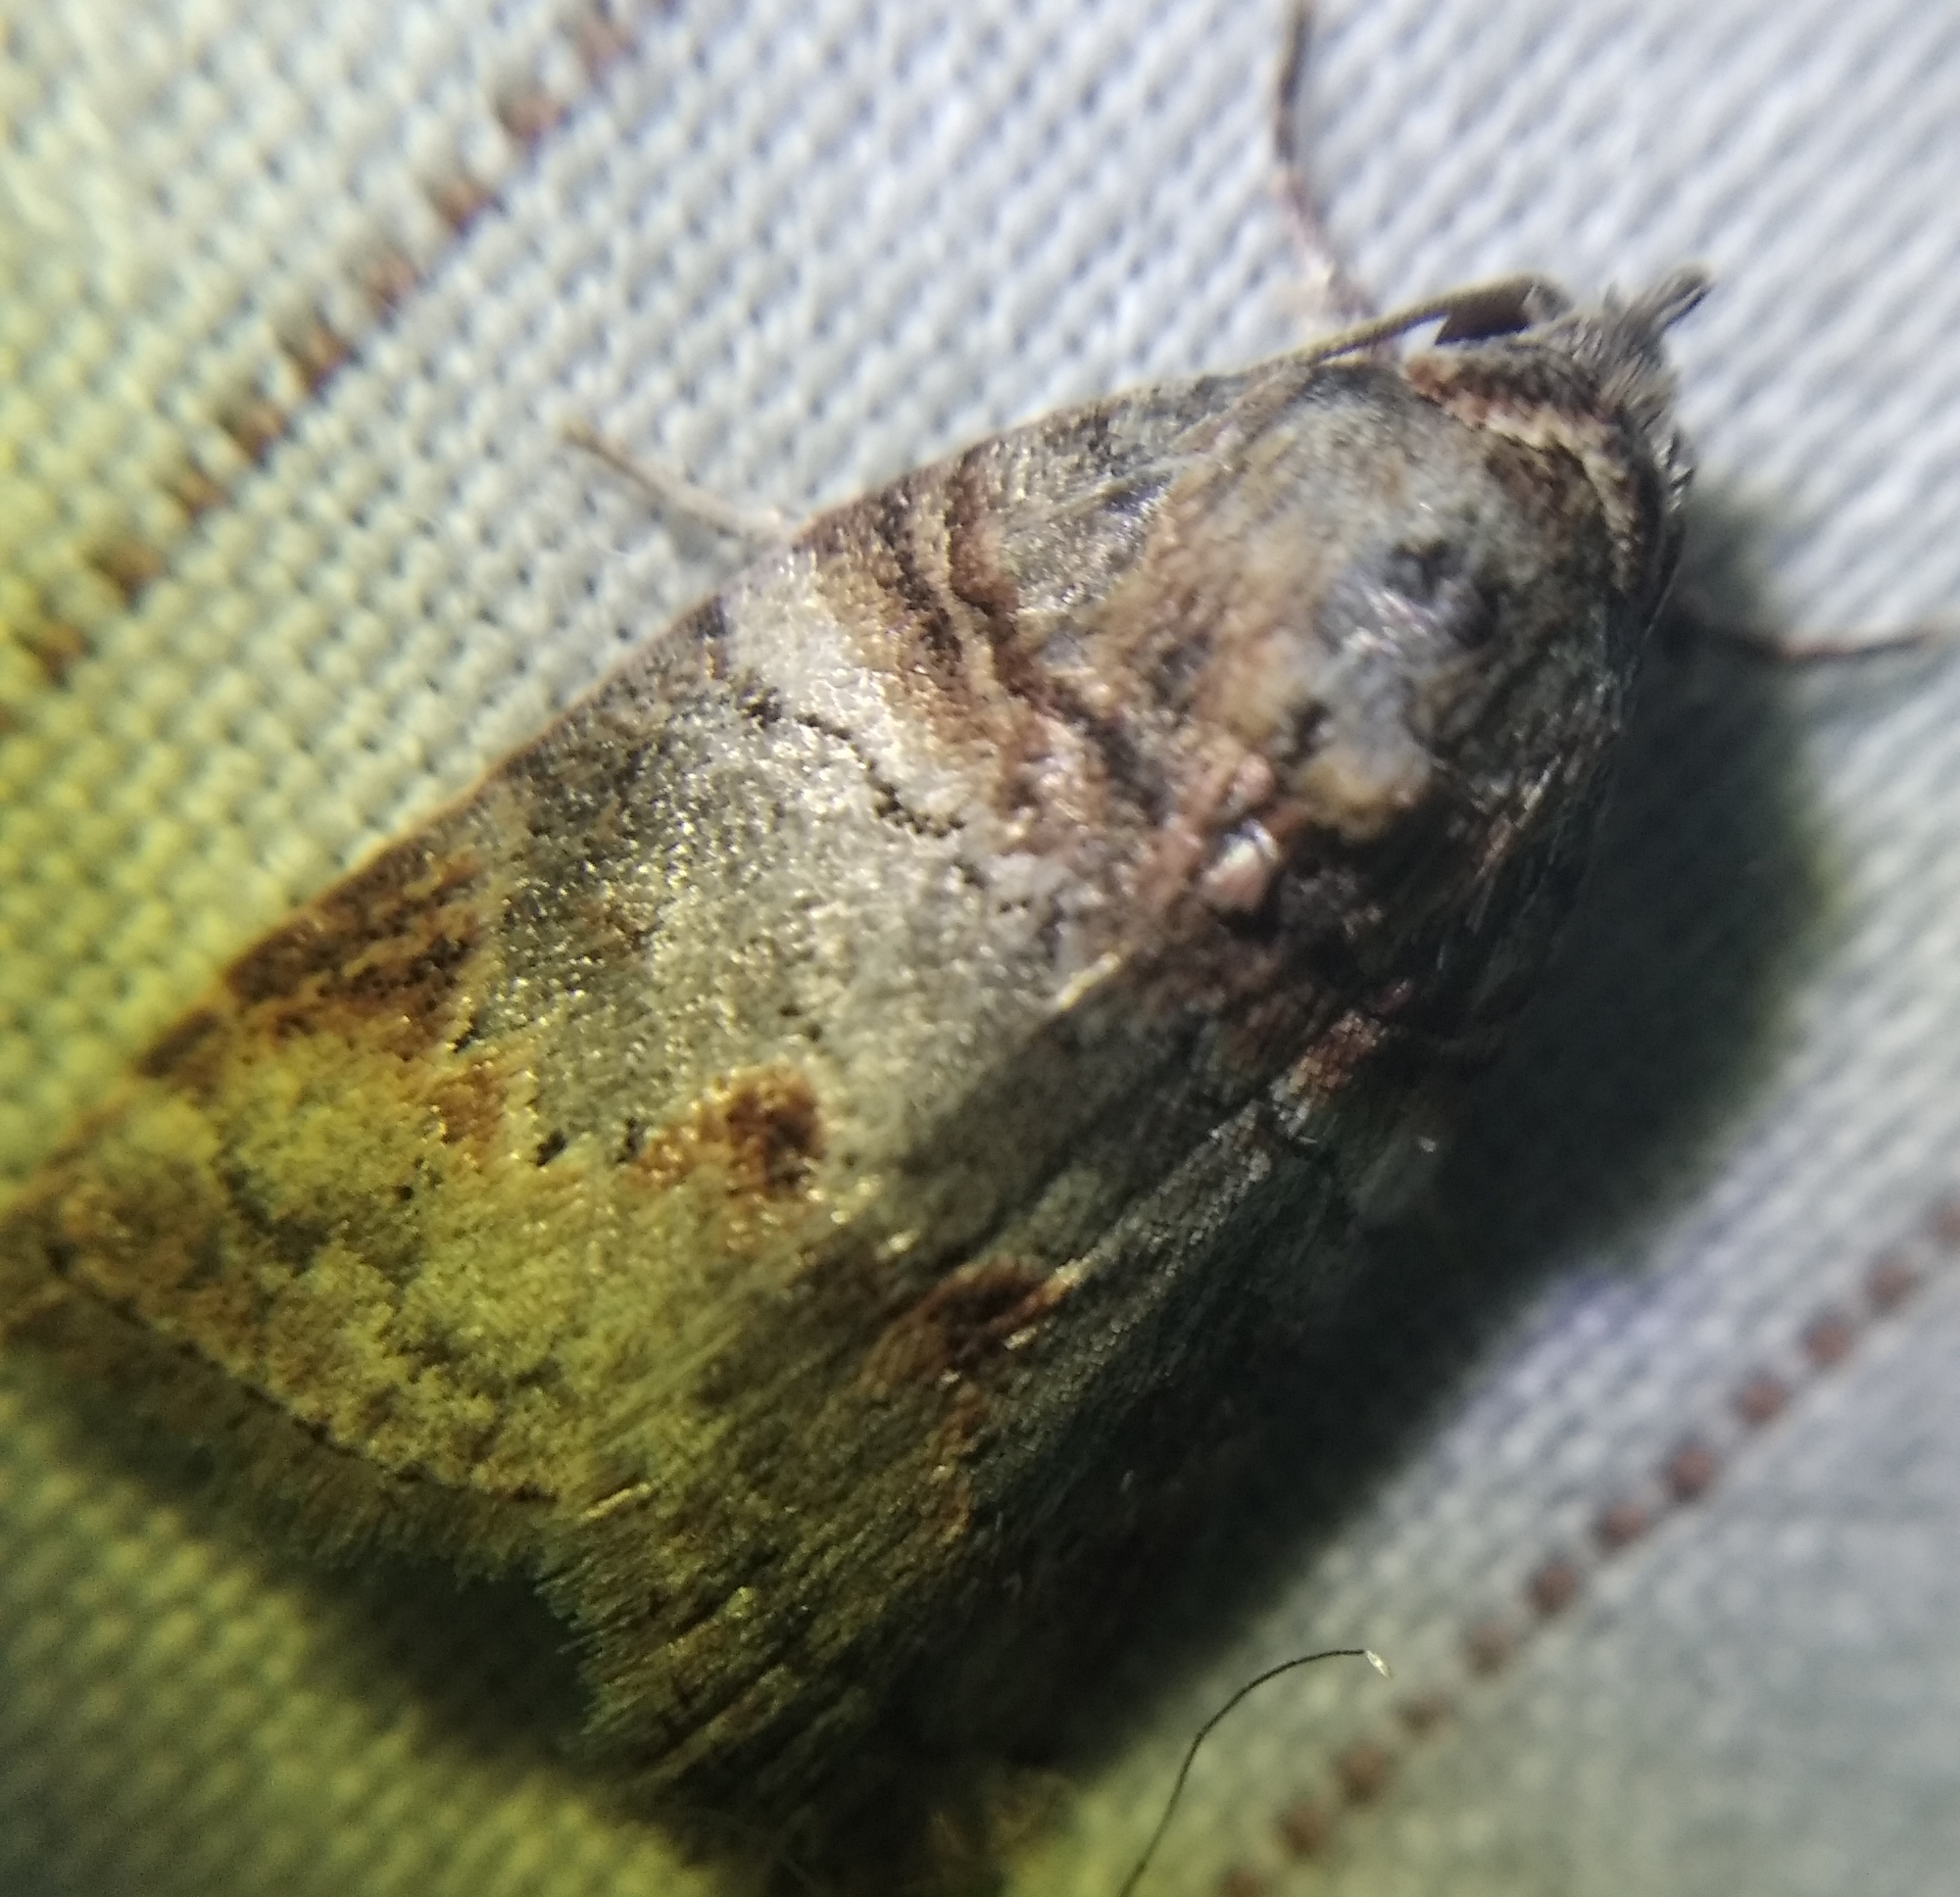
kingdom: Animalia
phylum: Arthropoda
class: Insecta
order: Lepidoptera
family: Nolidae
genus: Garella
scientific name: Garella musculana
